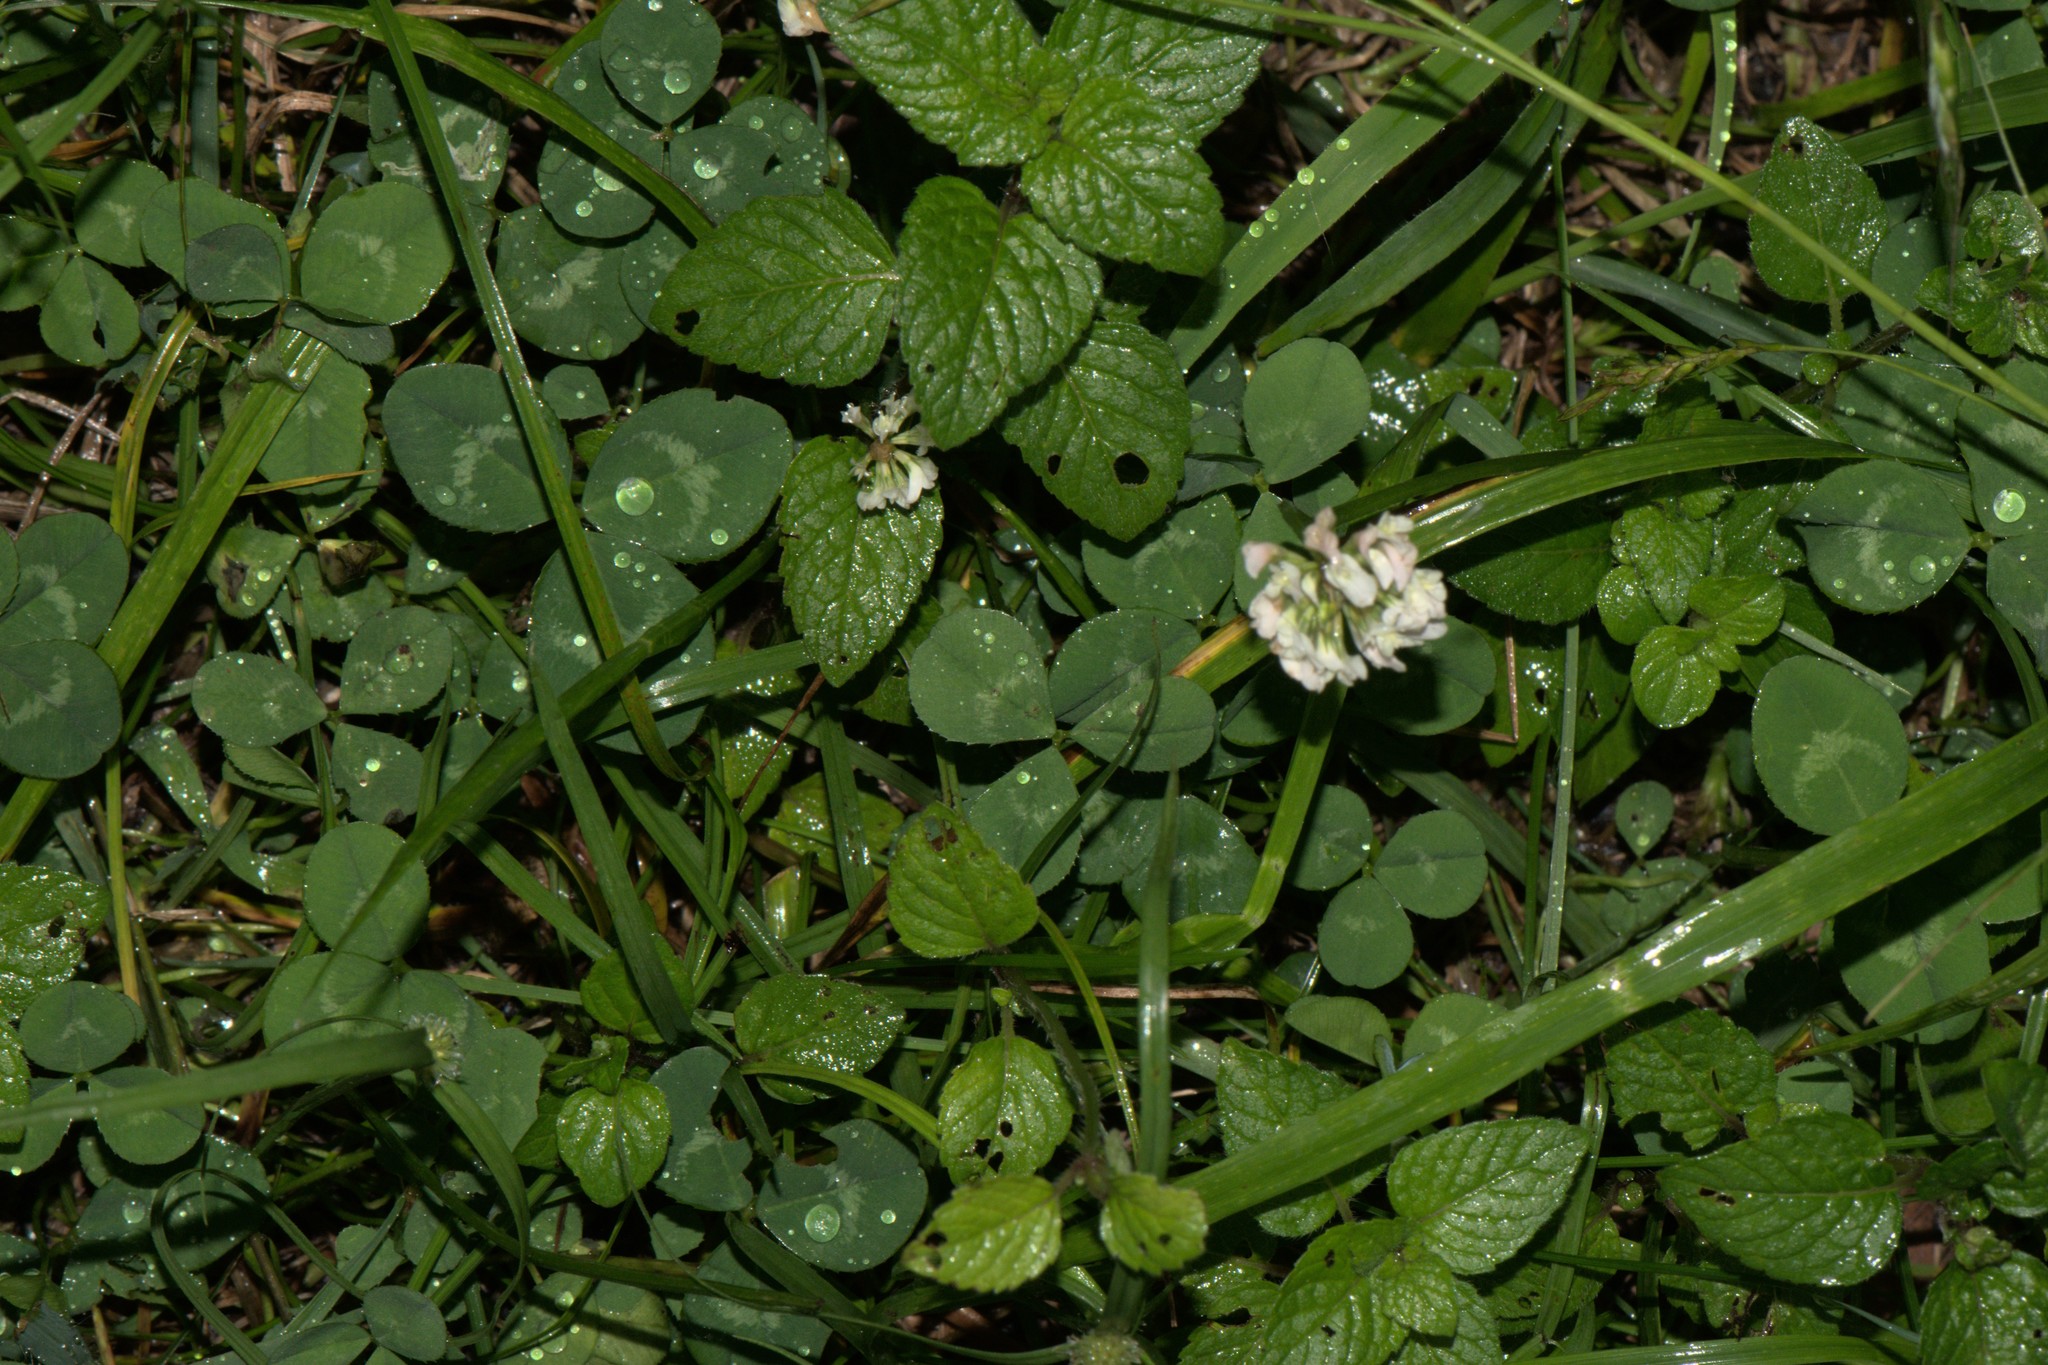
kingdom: Plantae
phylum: Tracheophyta
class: Magnoliopsida
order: Fabales
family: Fabaceae
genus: Trifolium
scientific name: Trifolium repens
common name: White clover
